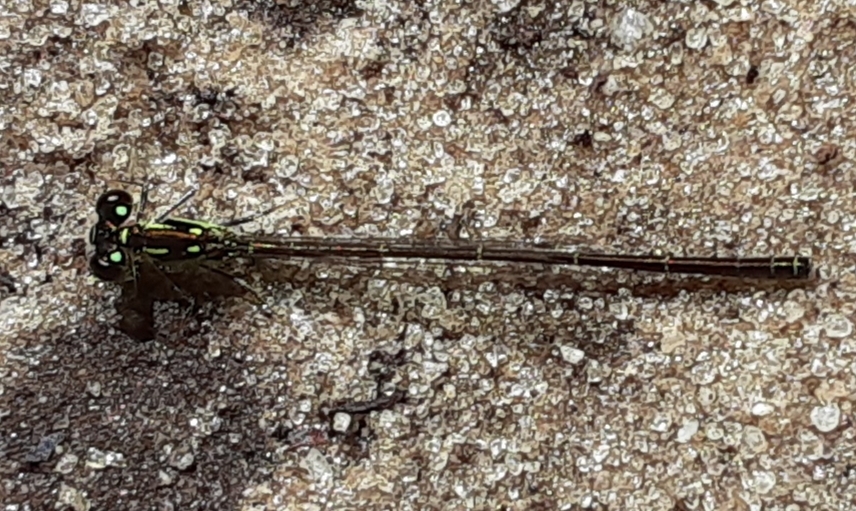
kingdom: Animalia
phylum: Arthropoda
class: Insecta
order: Odonata
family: Coenagrionidae
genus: Ischnura
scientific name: Ischnura posita
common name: Fragile forktail
